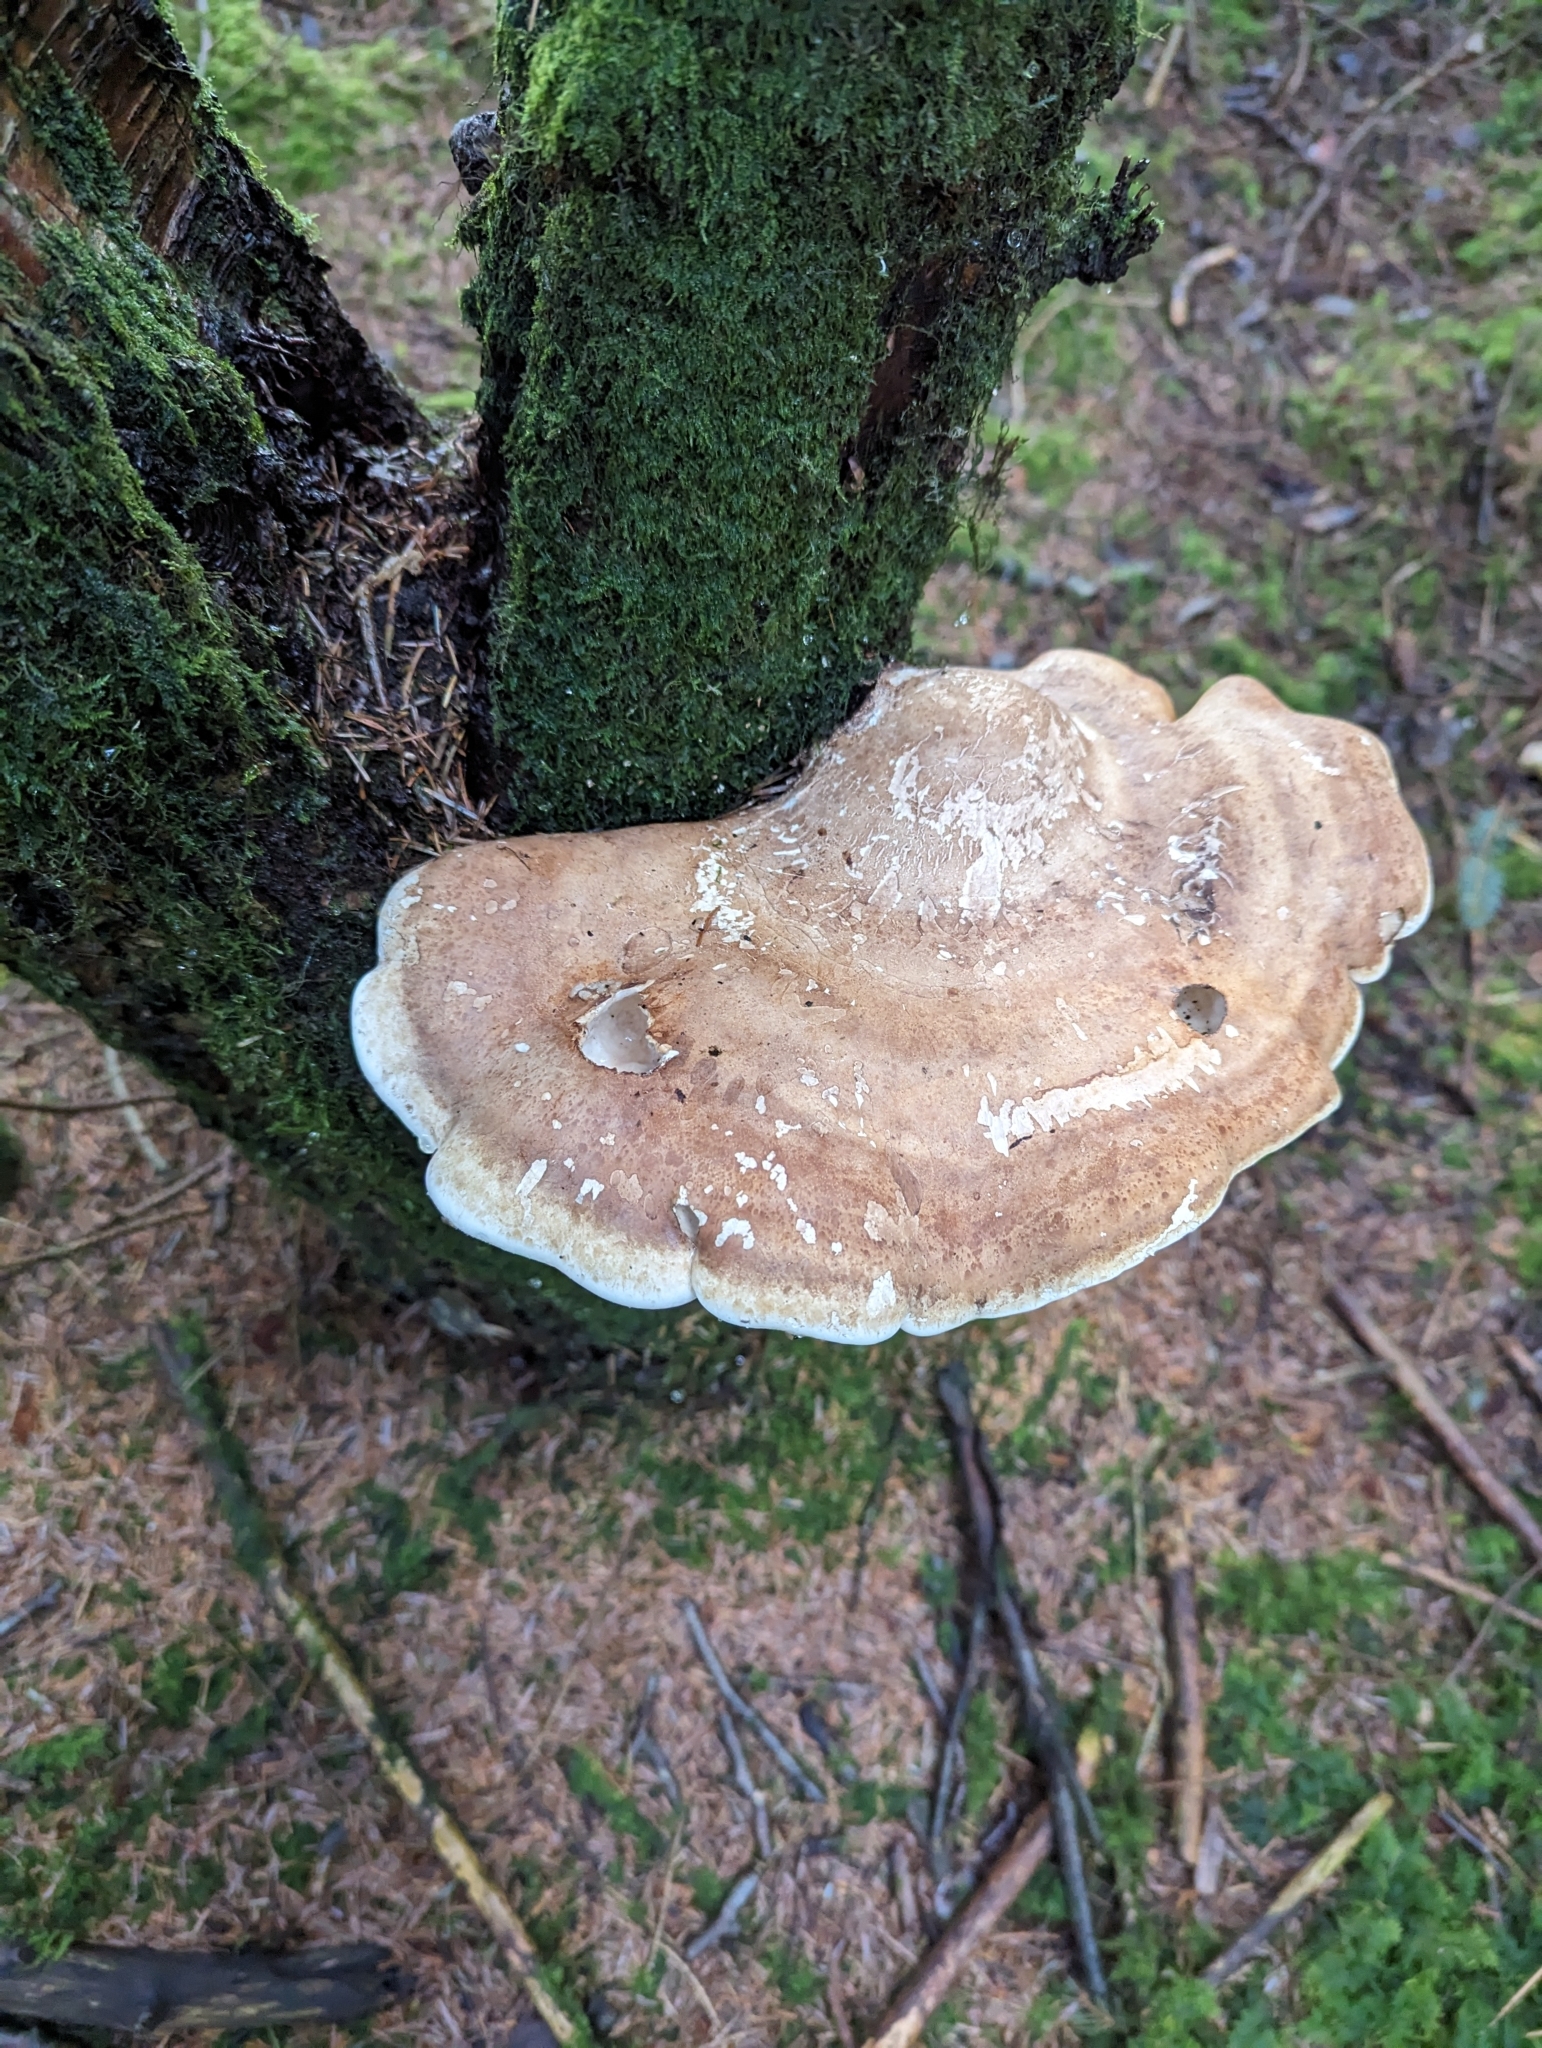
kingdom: Fungi
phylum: Basidiomycota
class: Agaricomycetes
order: Polyporales
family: Fomitopsidaceae
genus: Fomitopsis
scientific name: Fomitopsis betulina
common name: Birch polypore
